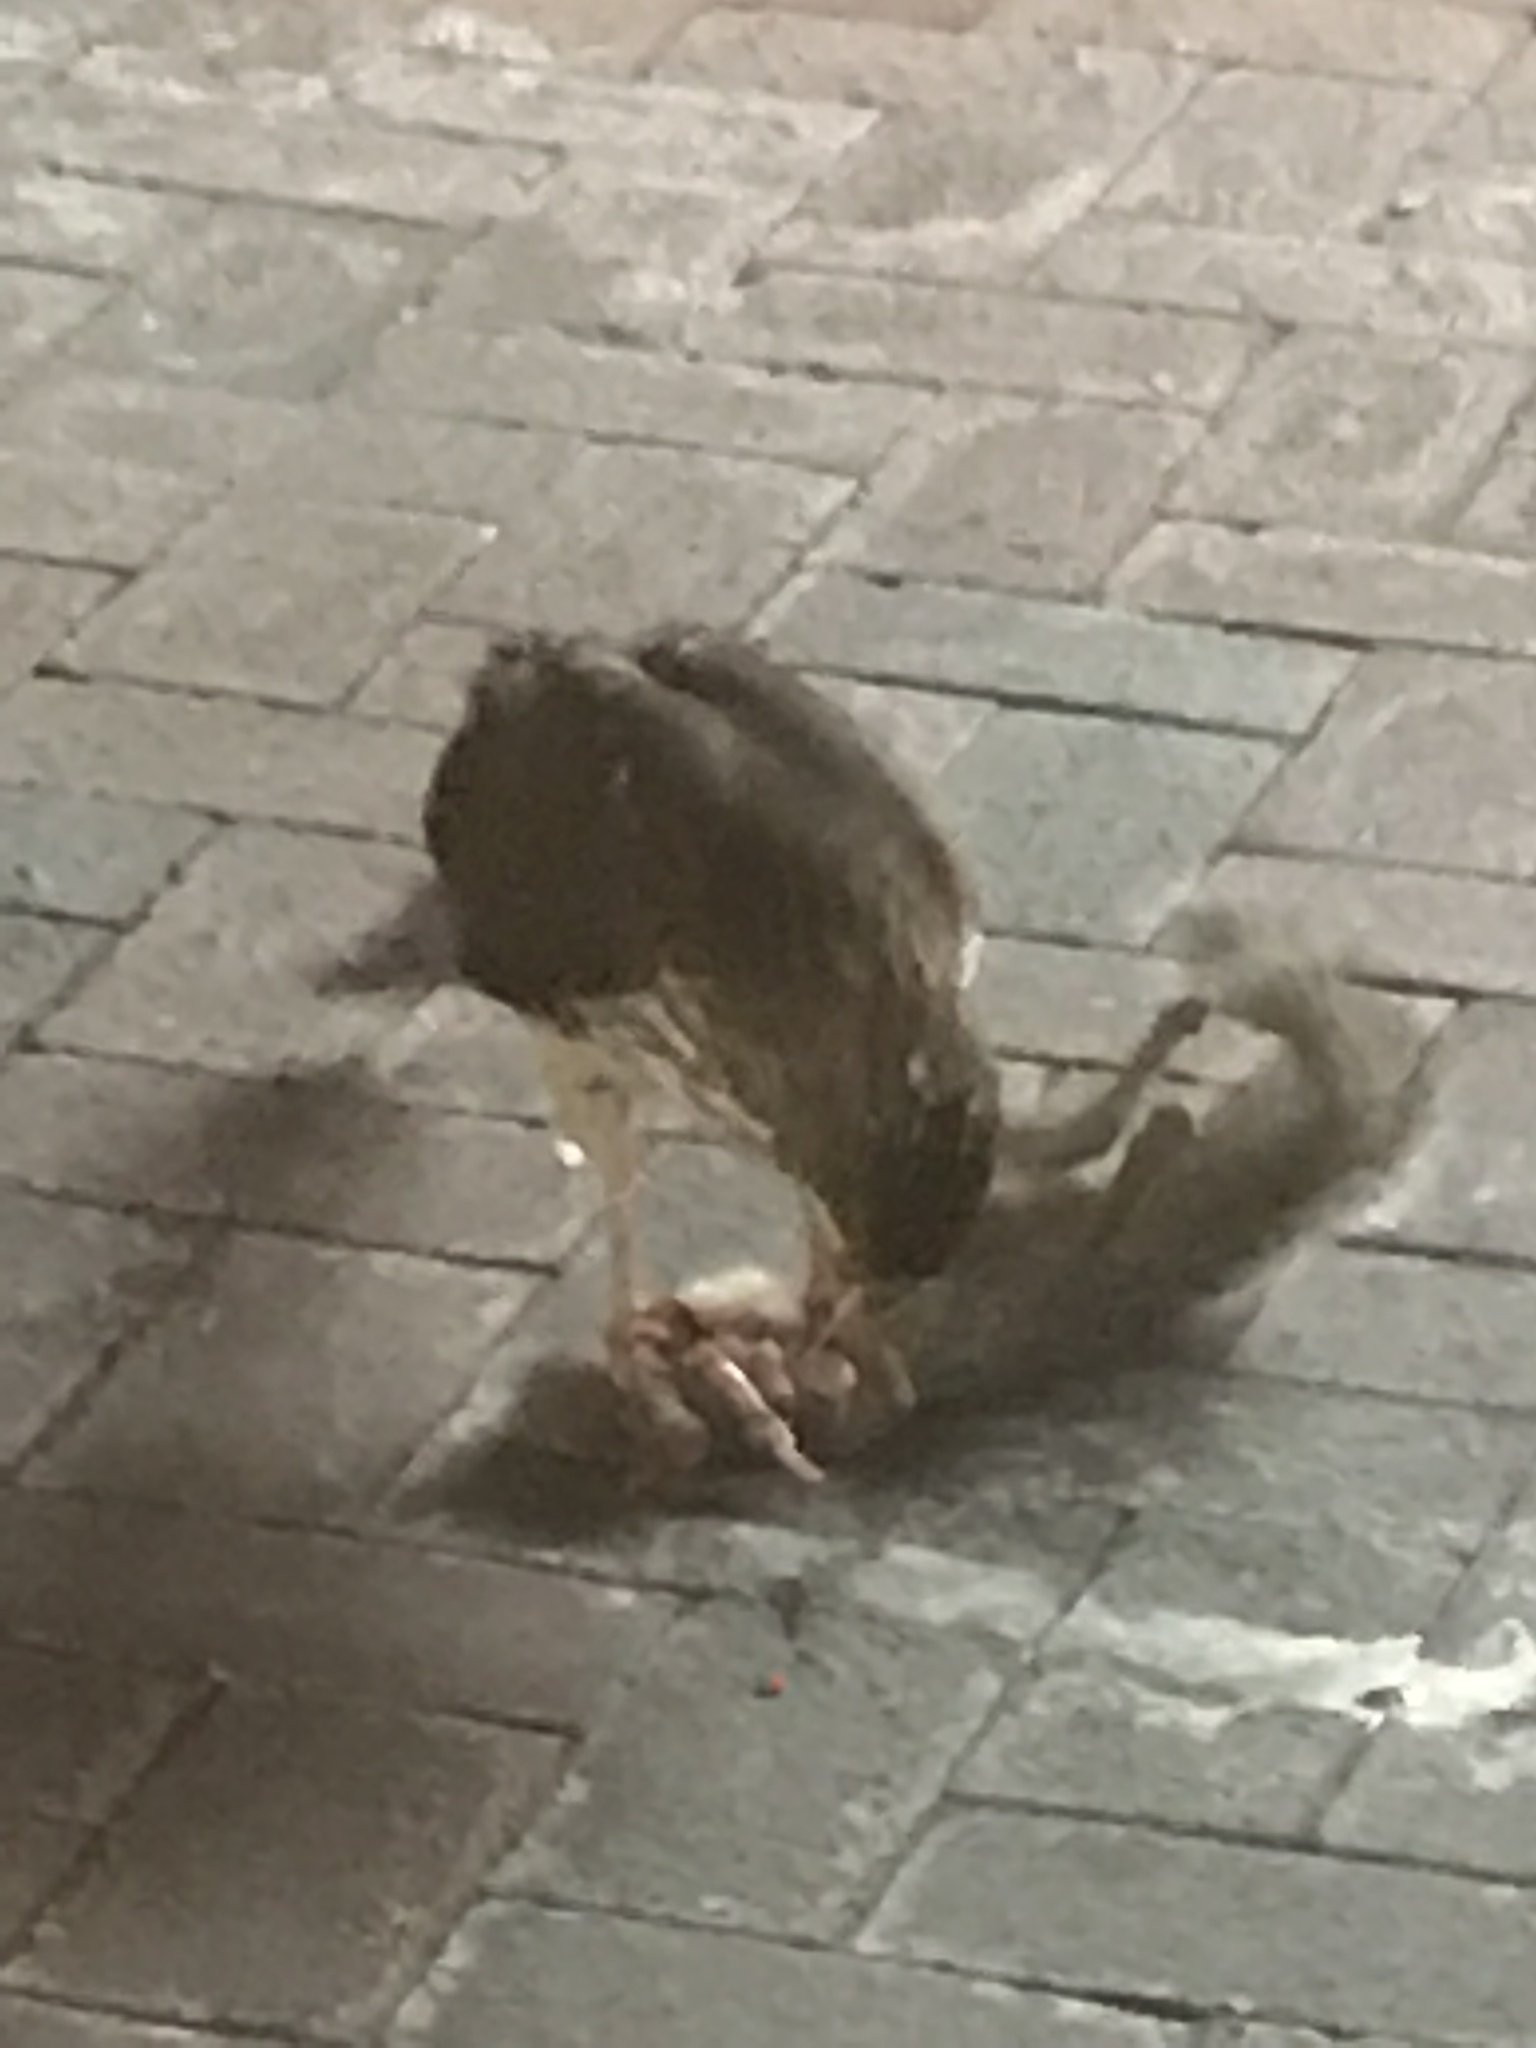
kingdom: Animalia
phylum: Chordata
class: Mammalia
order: Rodentia
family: Sciuridae
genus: Sciurus
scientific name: Sciurus carolinensis
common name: Eastern gray squirrel
